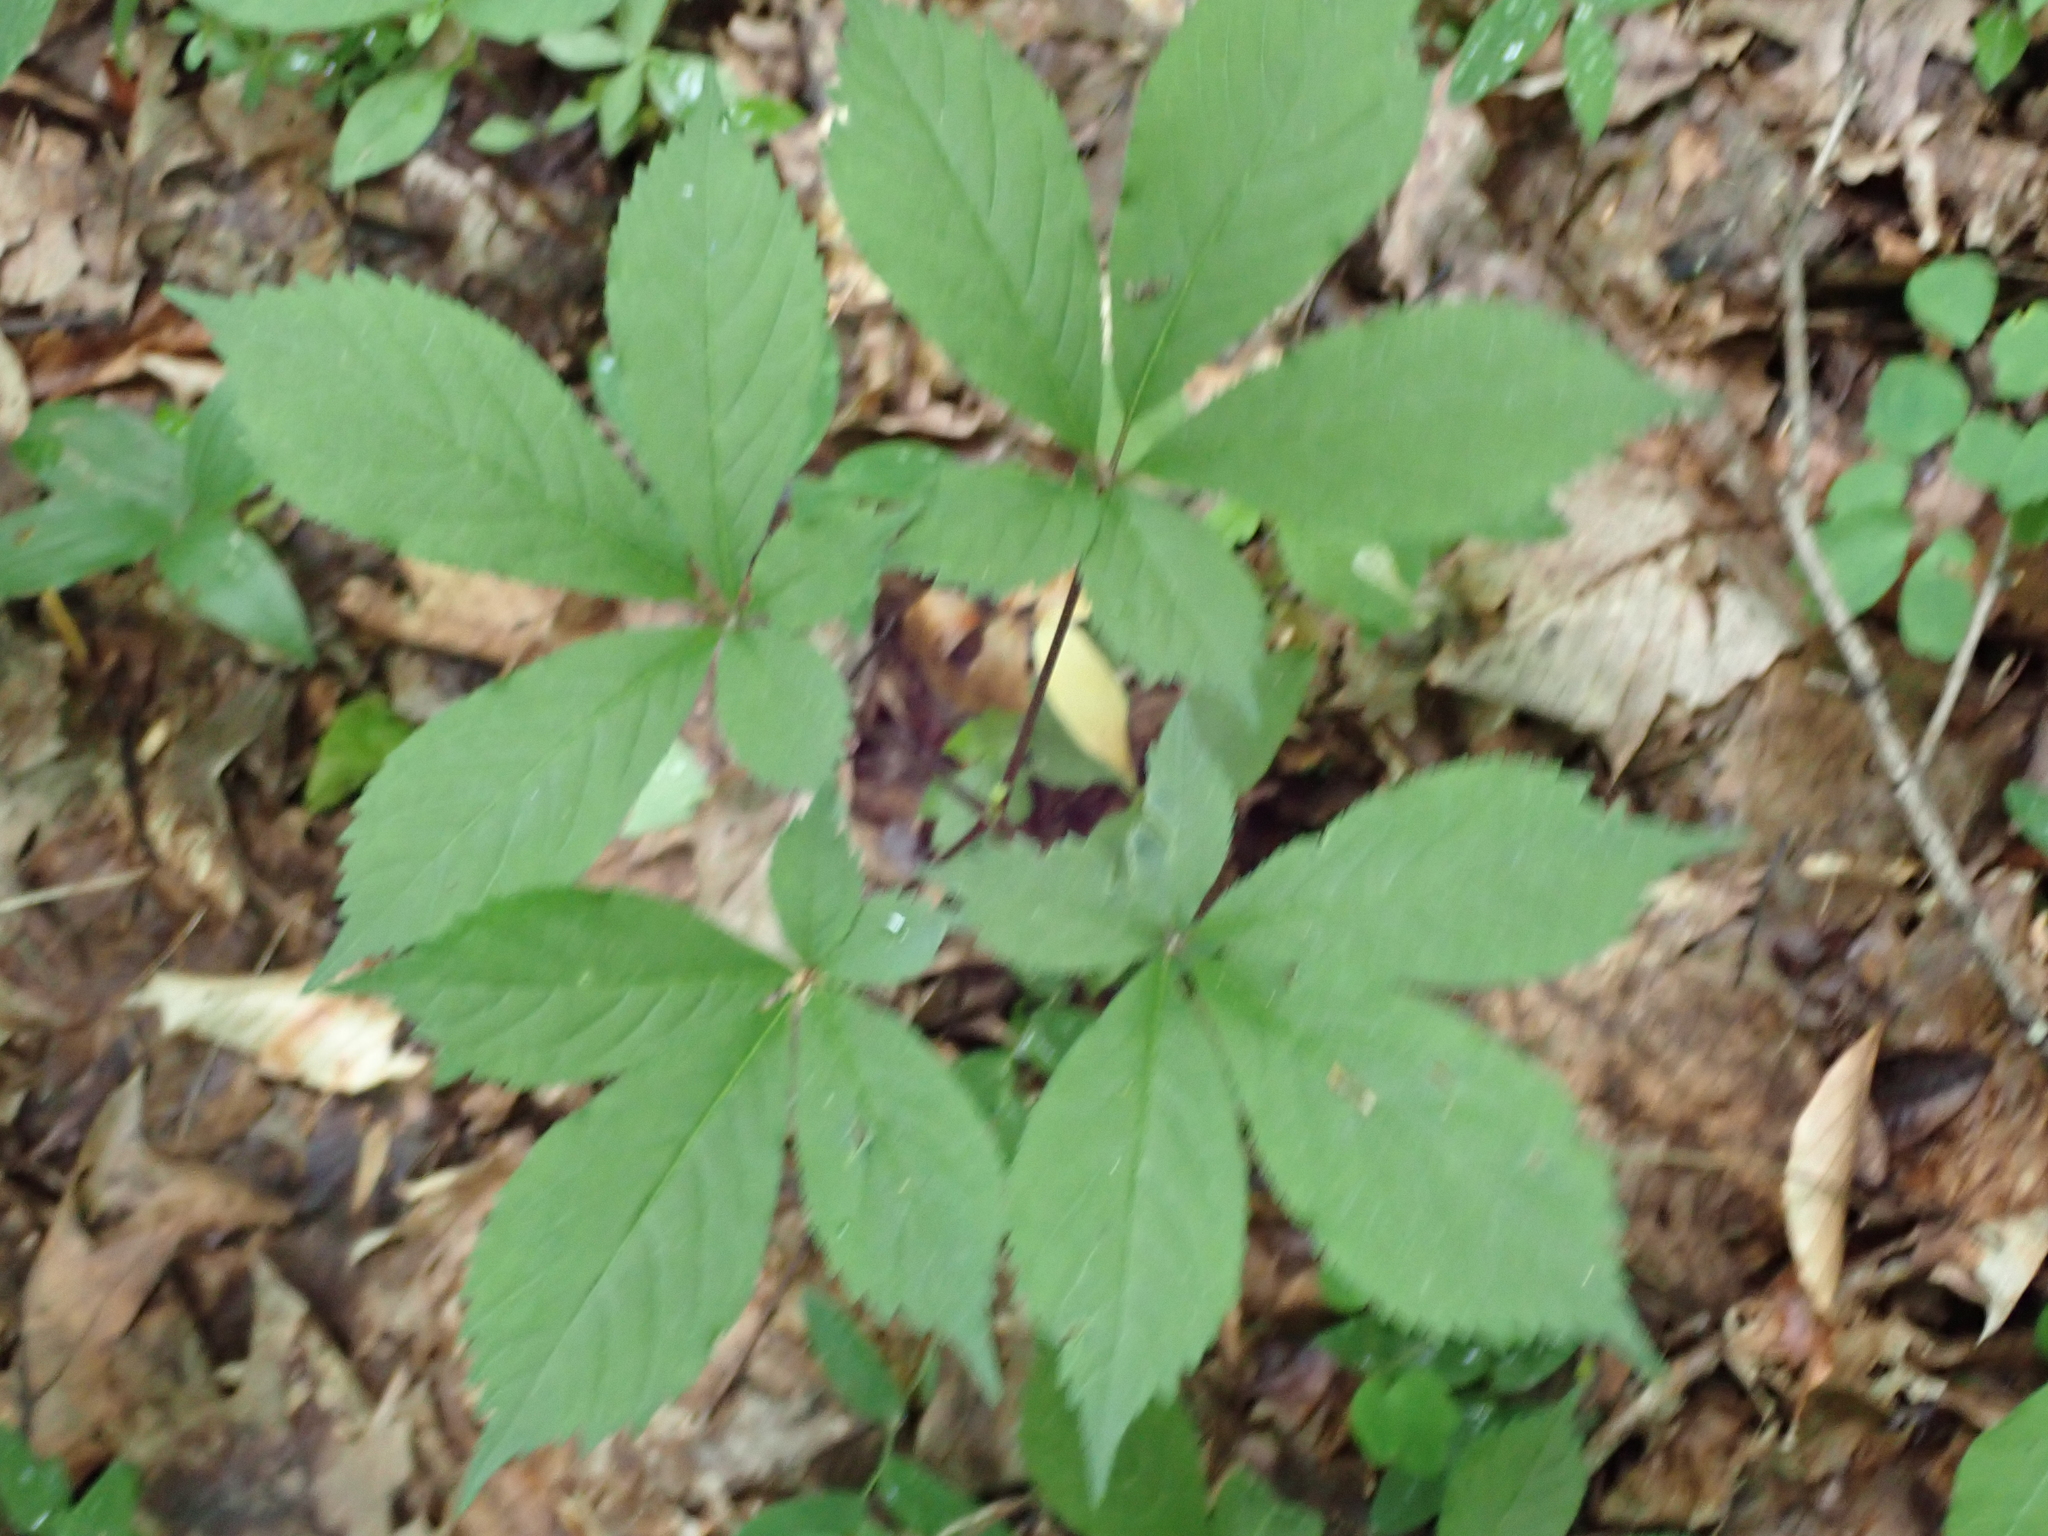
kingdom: Plantae
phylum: Tracheophyta
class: Magnoliopsida
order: Apiales
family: Araliaceae
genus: Panax
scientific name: Panax quinquefolius
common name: American ginseng
